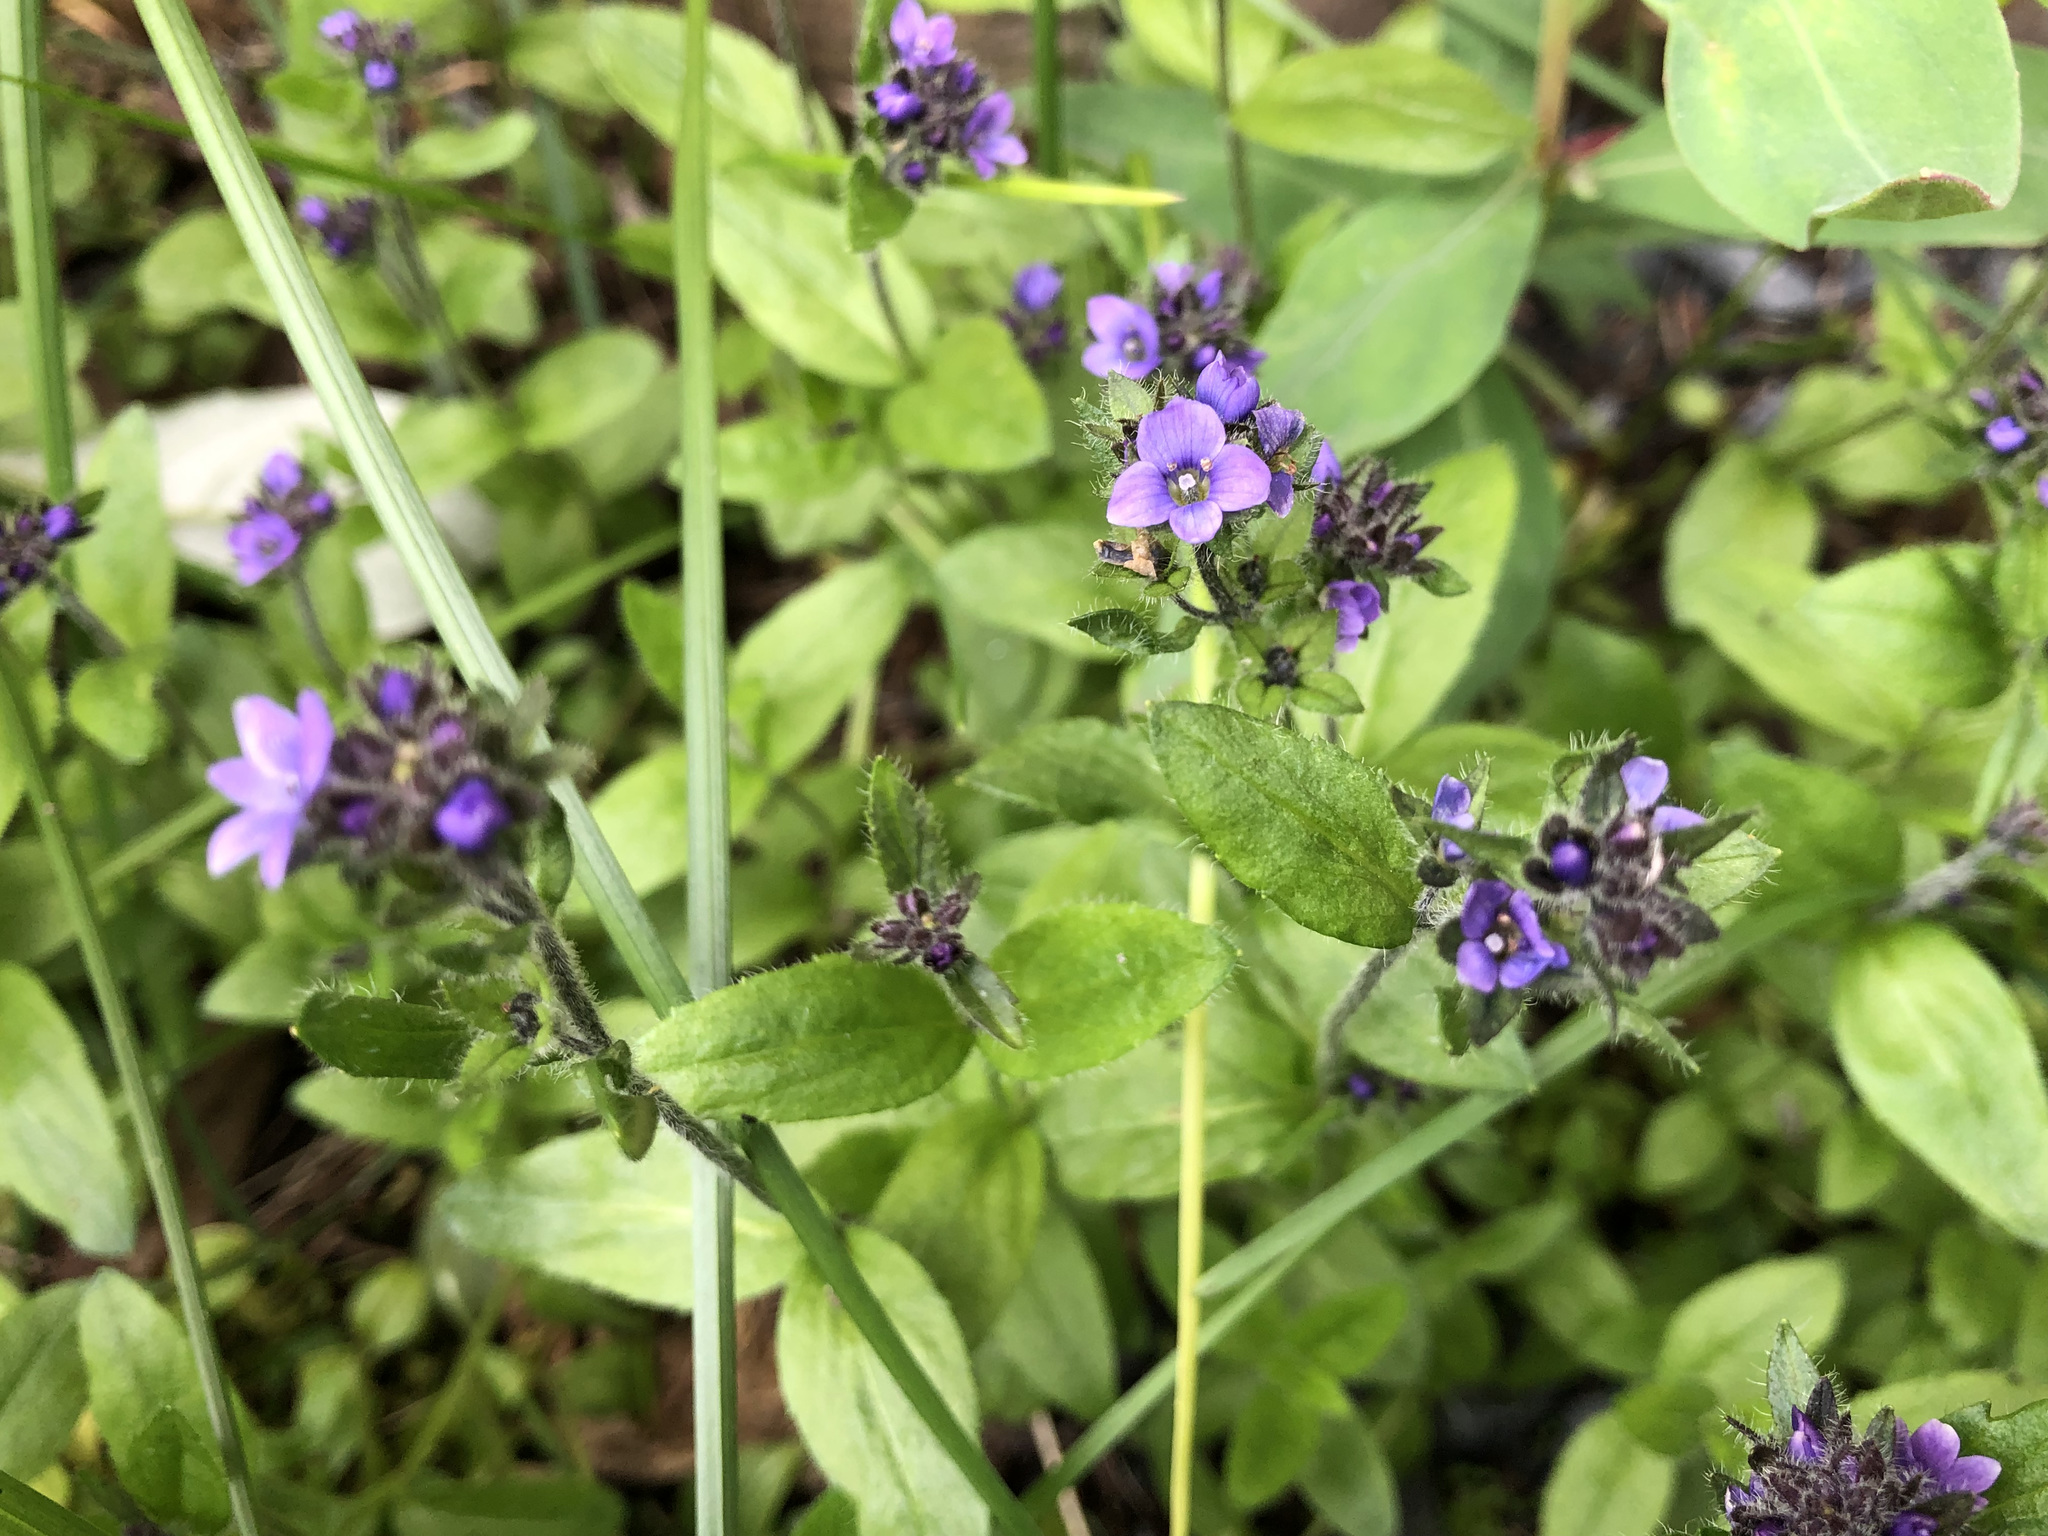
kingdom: Plantae
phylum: Tracheophyta
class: Magnoliopsida
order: Lamiales
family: Plantaginaceae
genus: Veronica
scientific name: Veronica wormskjoldii
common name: American alpine speedwell
